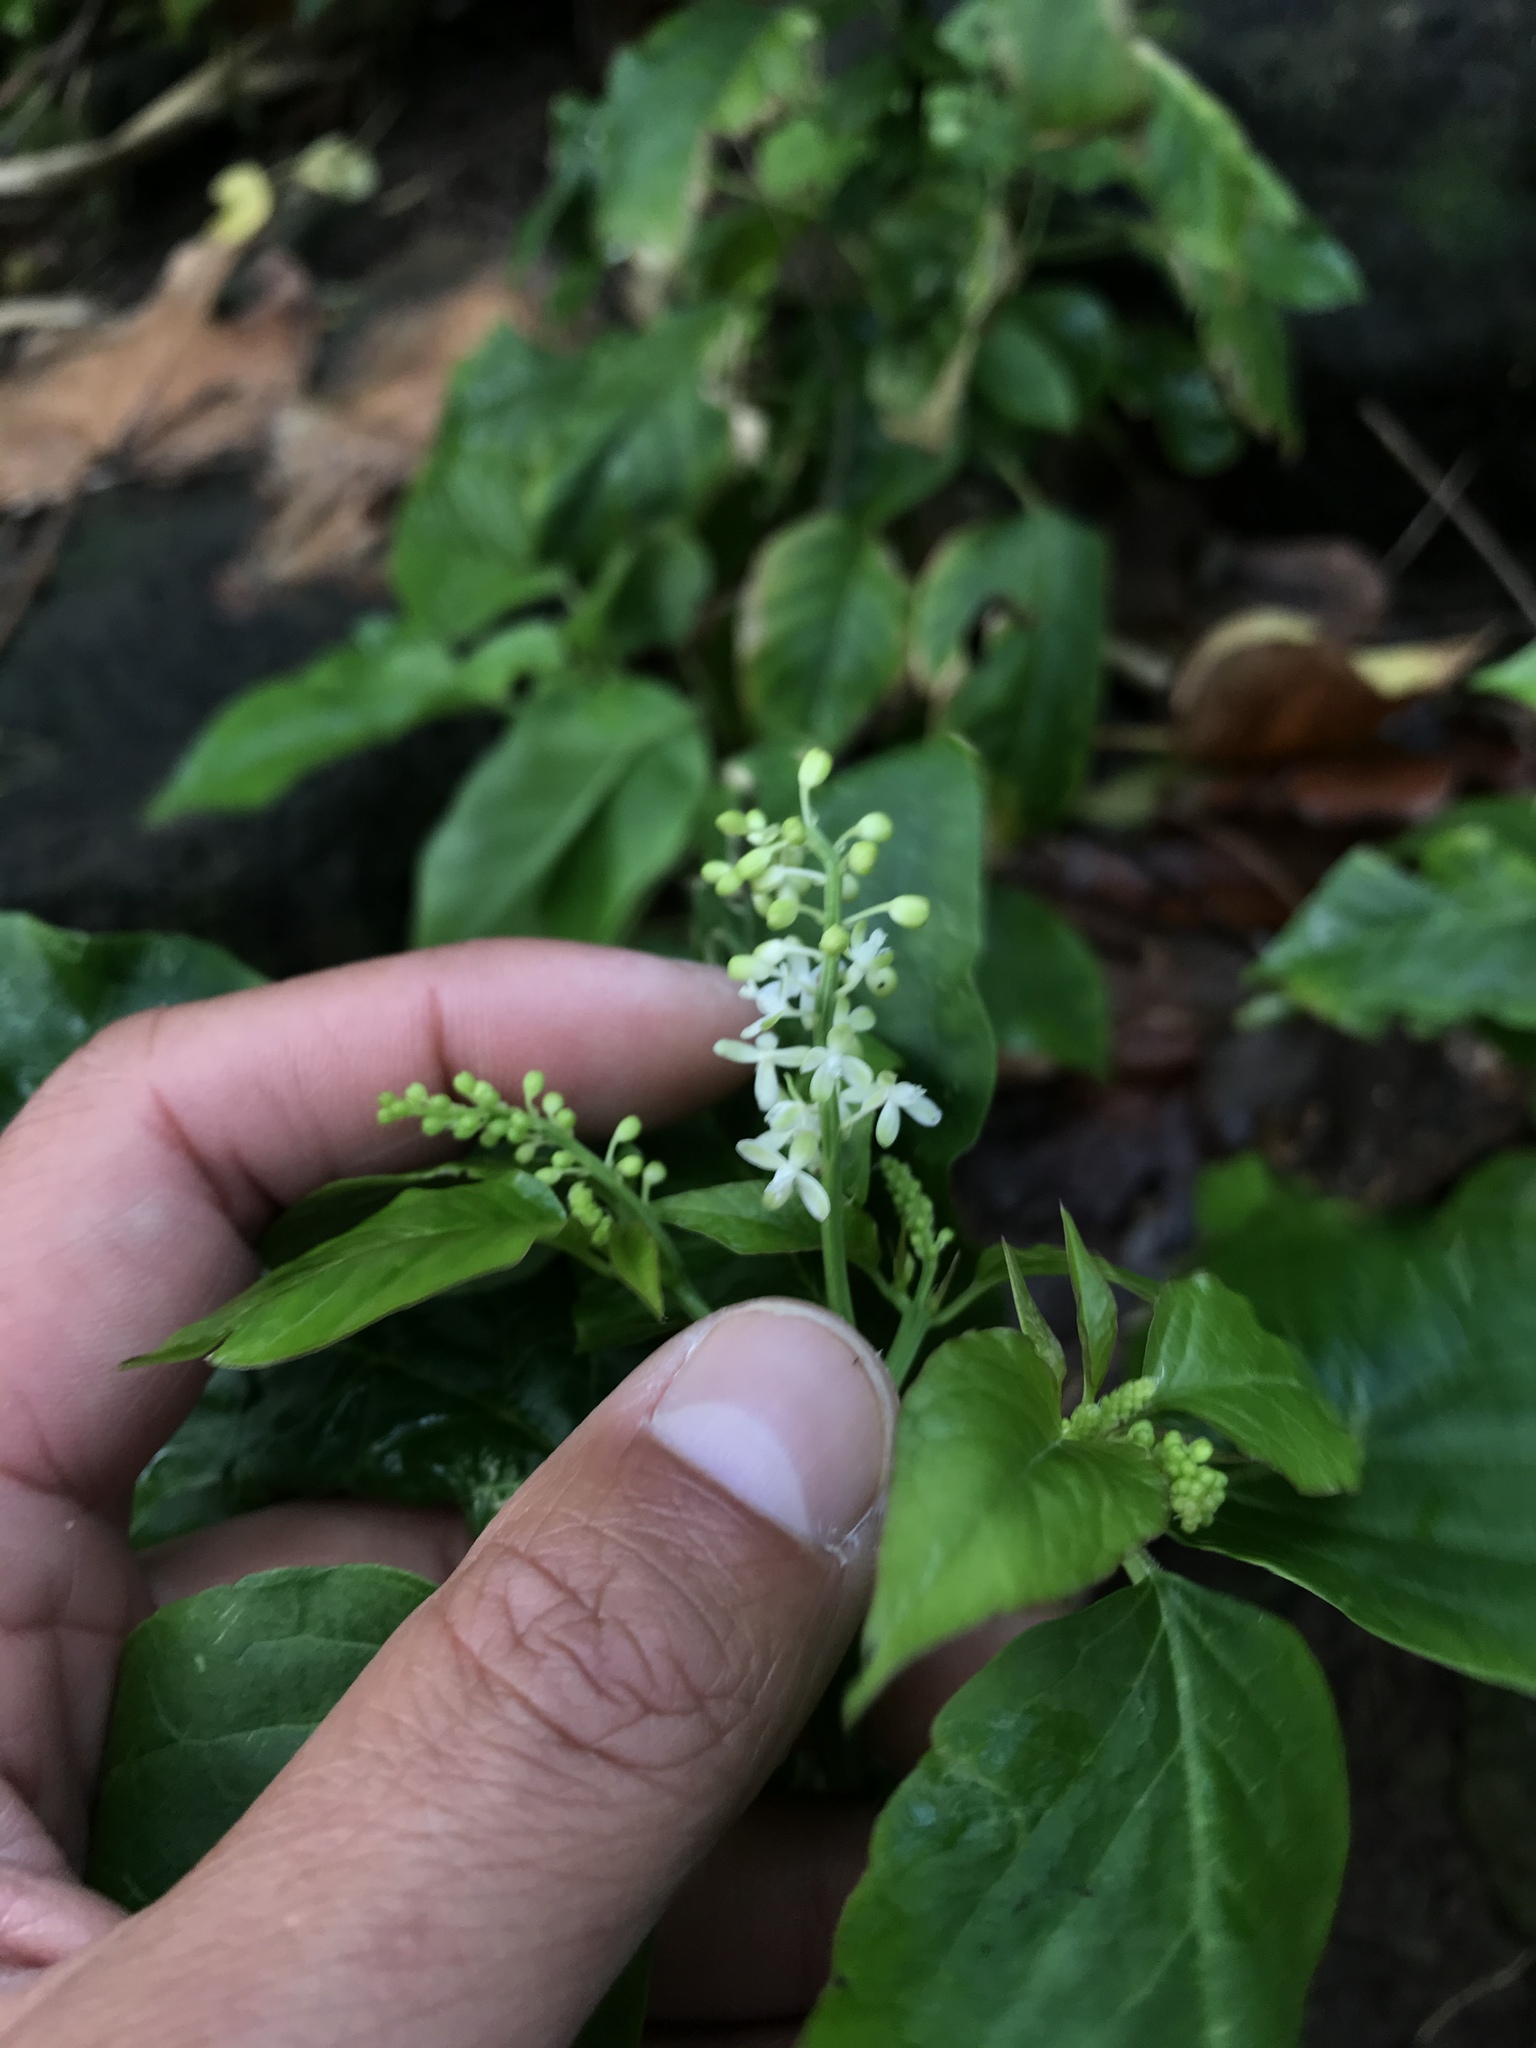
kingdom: Plantae
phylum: Tracheophyta
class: Magnoliopsida
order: Caryophyllales
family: Phytolaccaceae
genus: Rivina
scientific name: Rivina humilis
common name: Rougeplant
